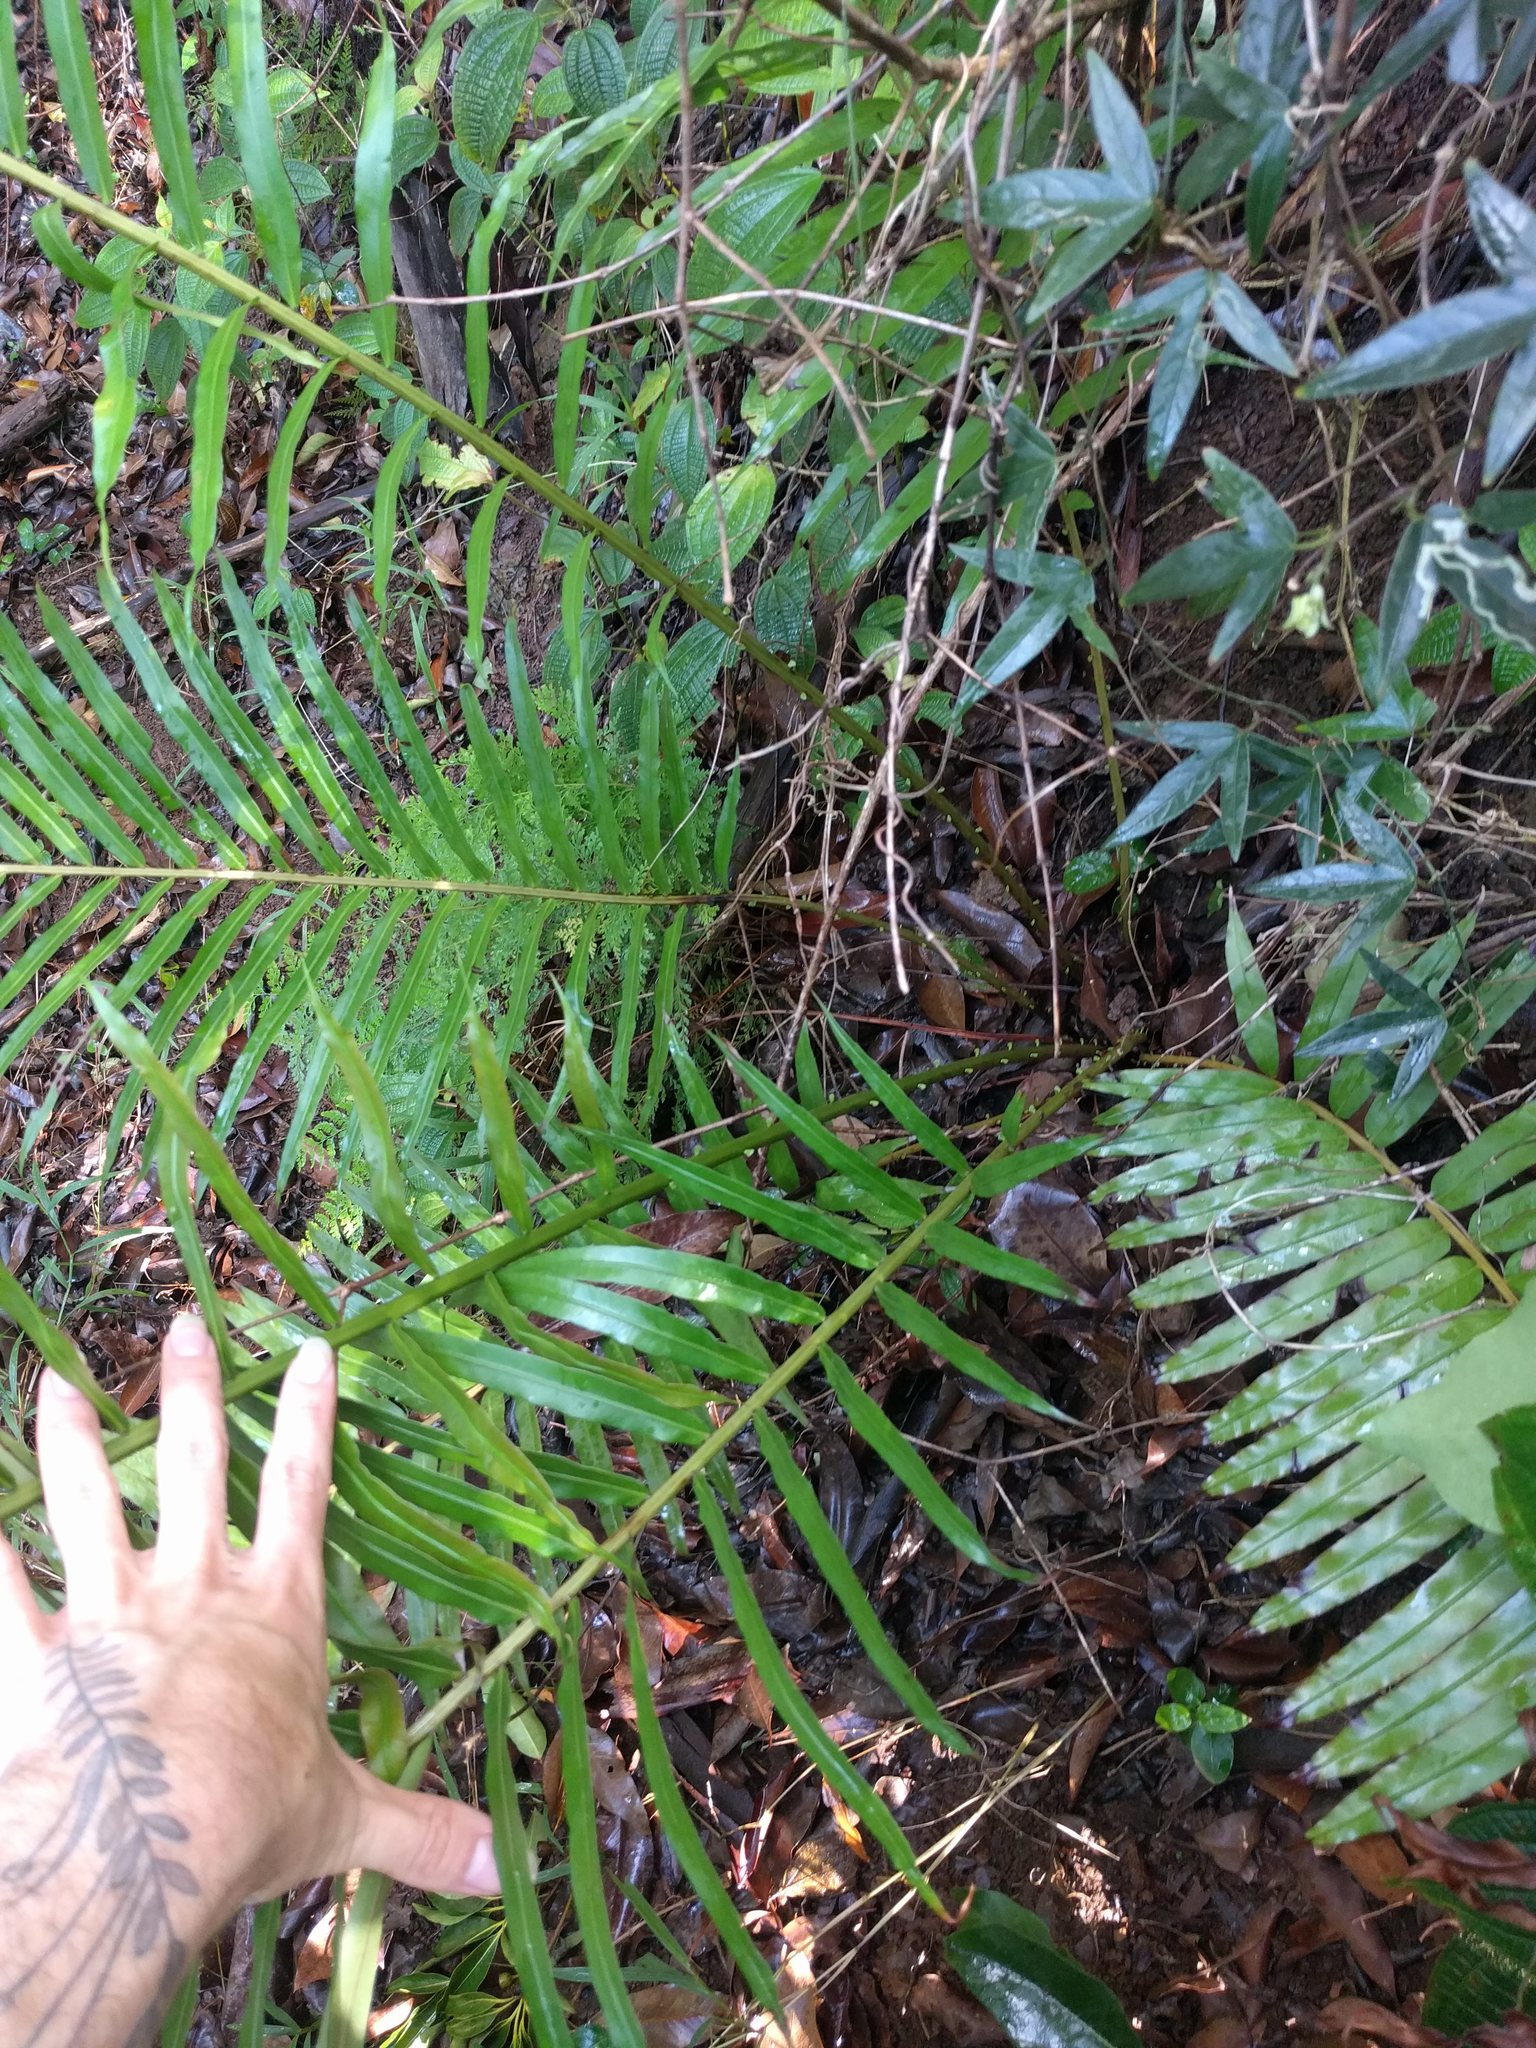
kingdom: Plantae
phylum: Tracheophyta
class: Polypodiopsida
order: Polypodiales
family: Blechnaceae
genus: Blechnopsis
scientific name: Blechnopsis orientalis
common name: Oriental blechnum
